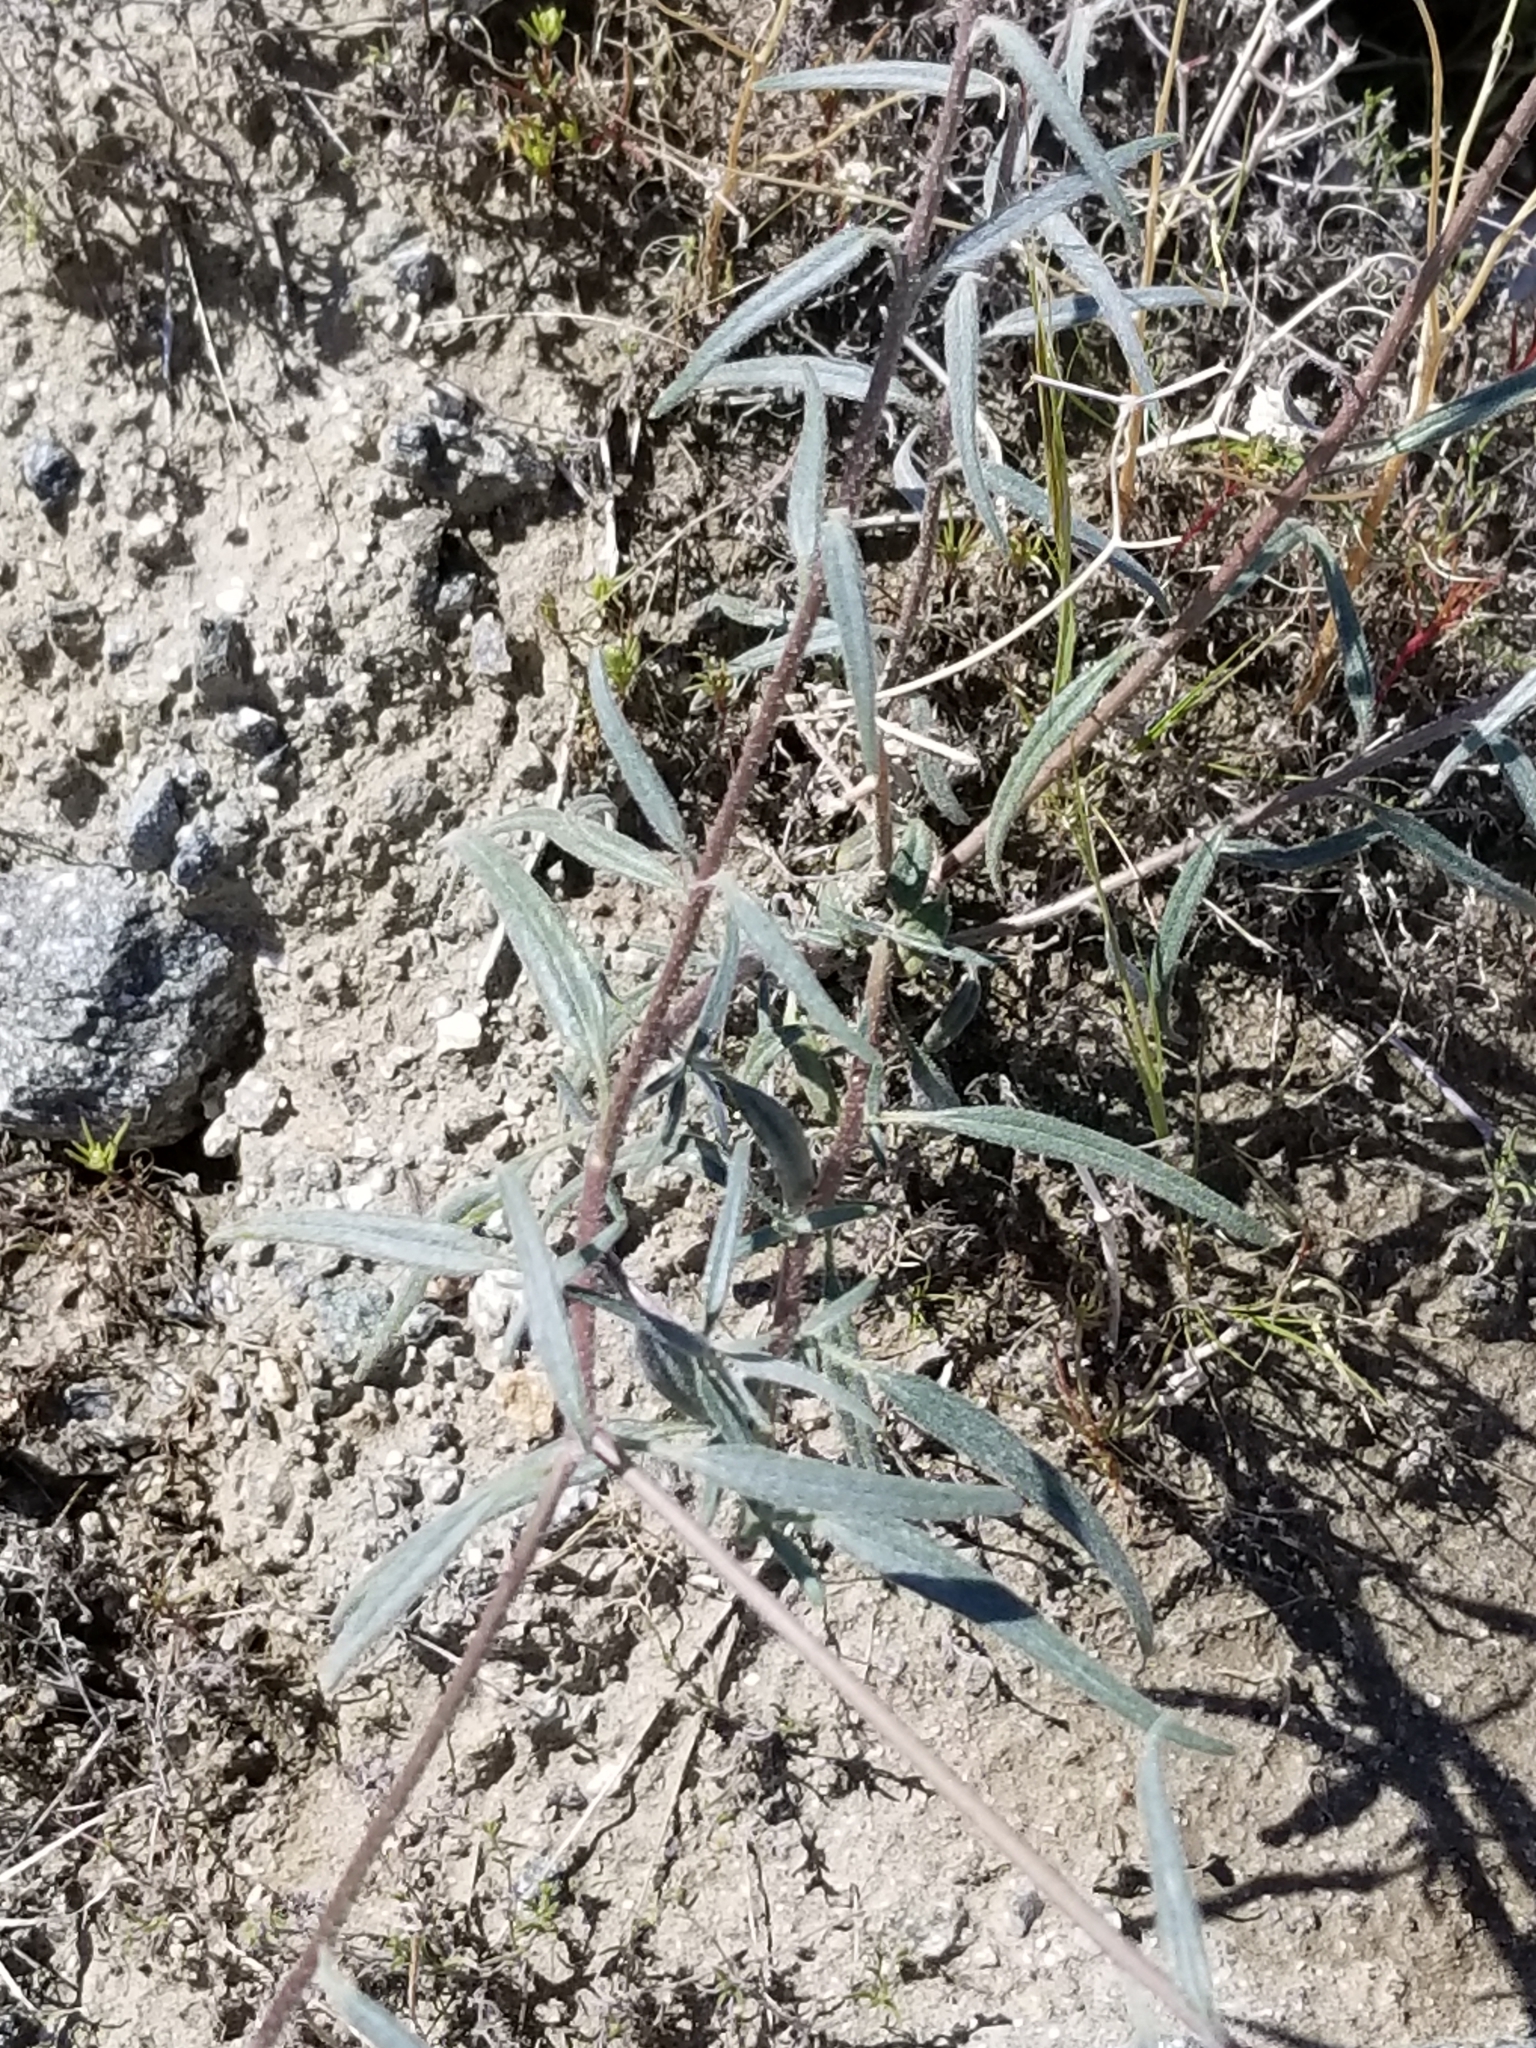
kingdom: Plantae
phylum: Tracheophyta
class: Magnoliopsida
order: Asterales
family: Asteraceae
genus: Palafoxia
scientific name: Palafoxia arida
